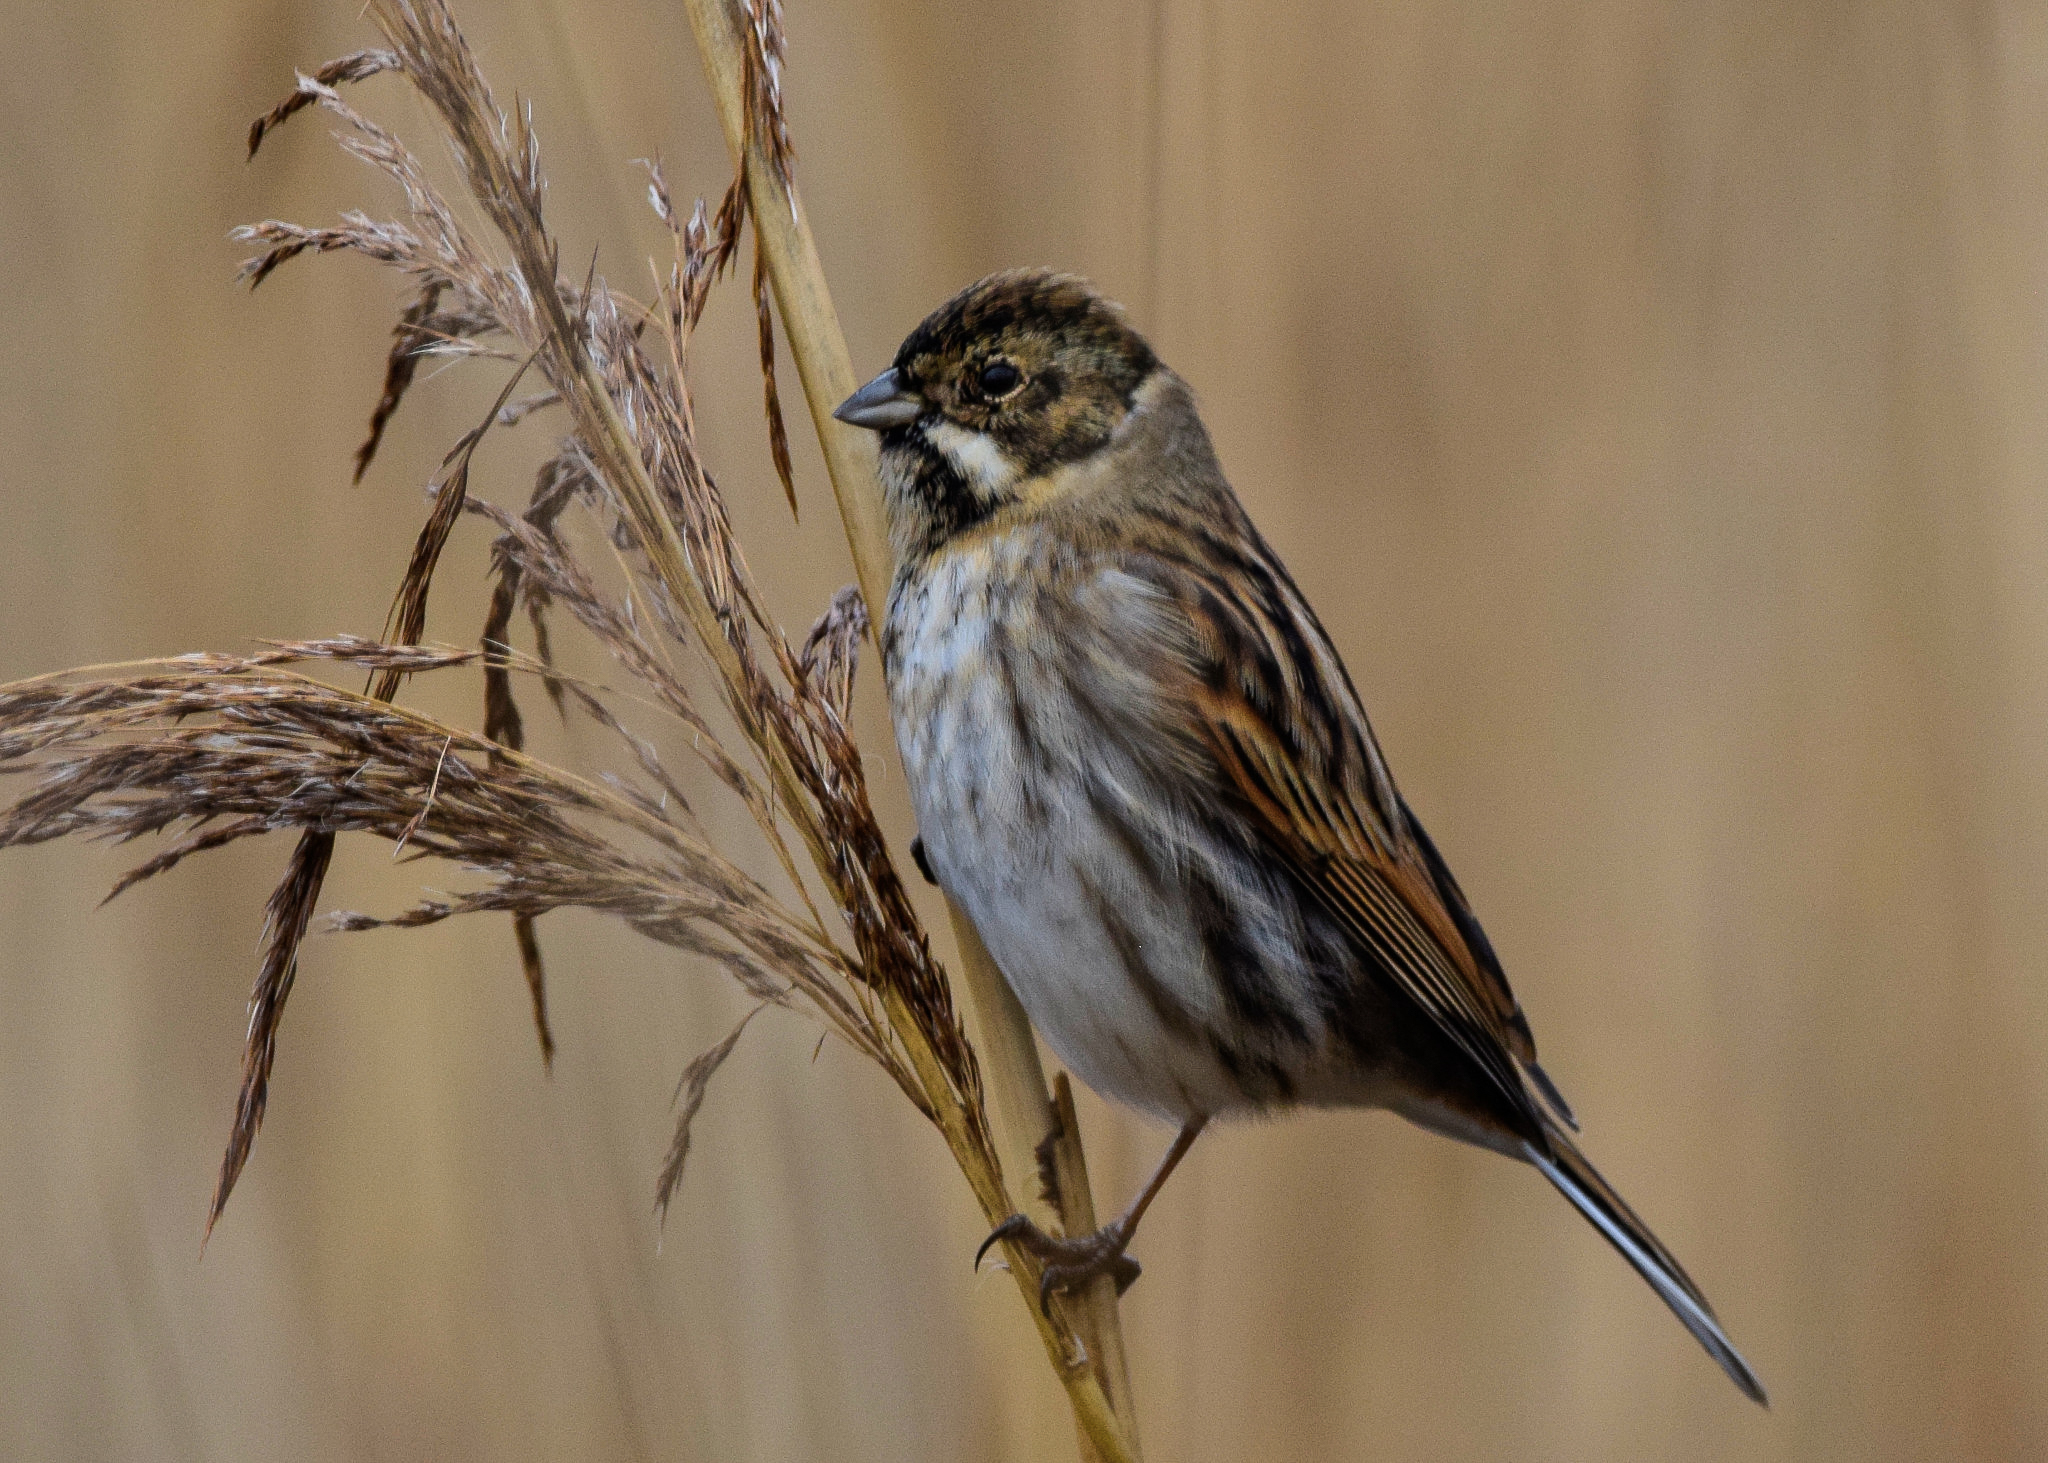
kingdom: Animalia
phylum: Chordata
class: Aves
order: Passeriformes
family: Emberizidae
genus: Emberiza
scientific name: Emberiza schoeniclus
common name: Reed bunting
